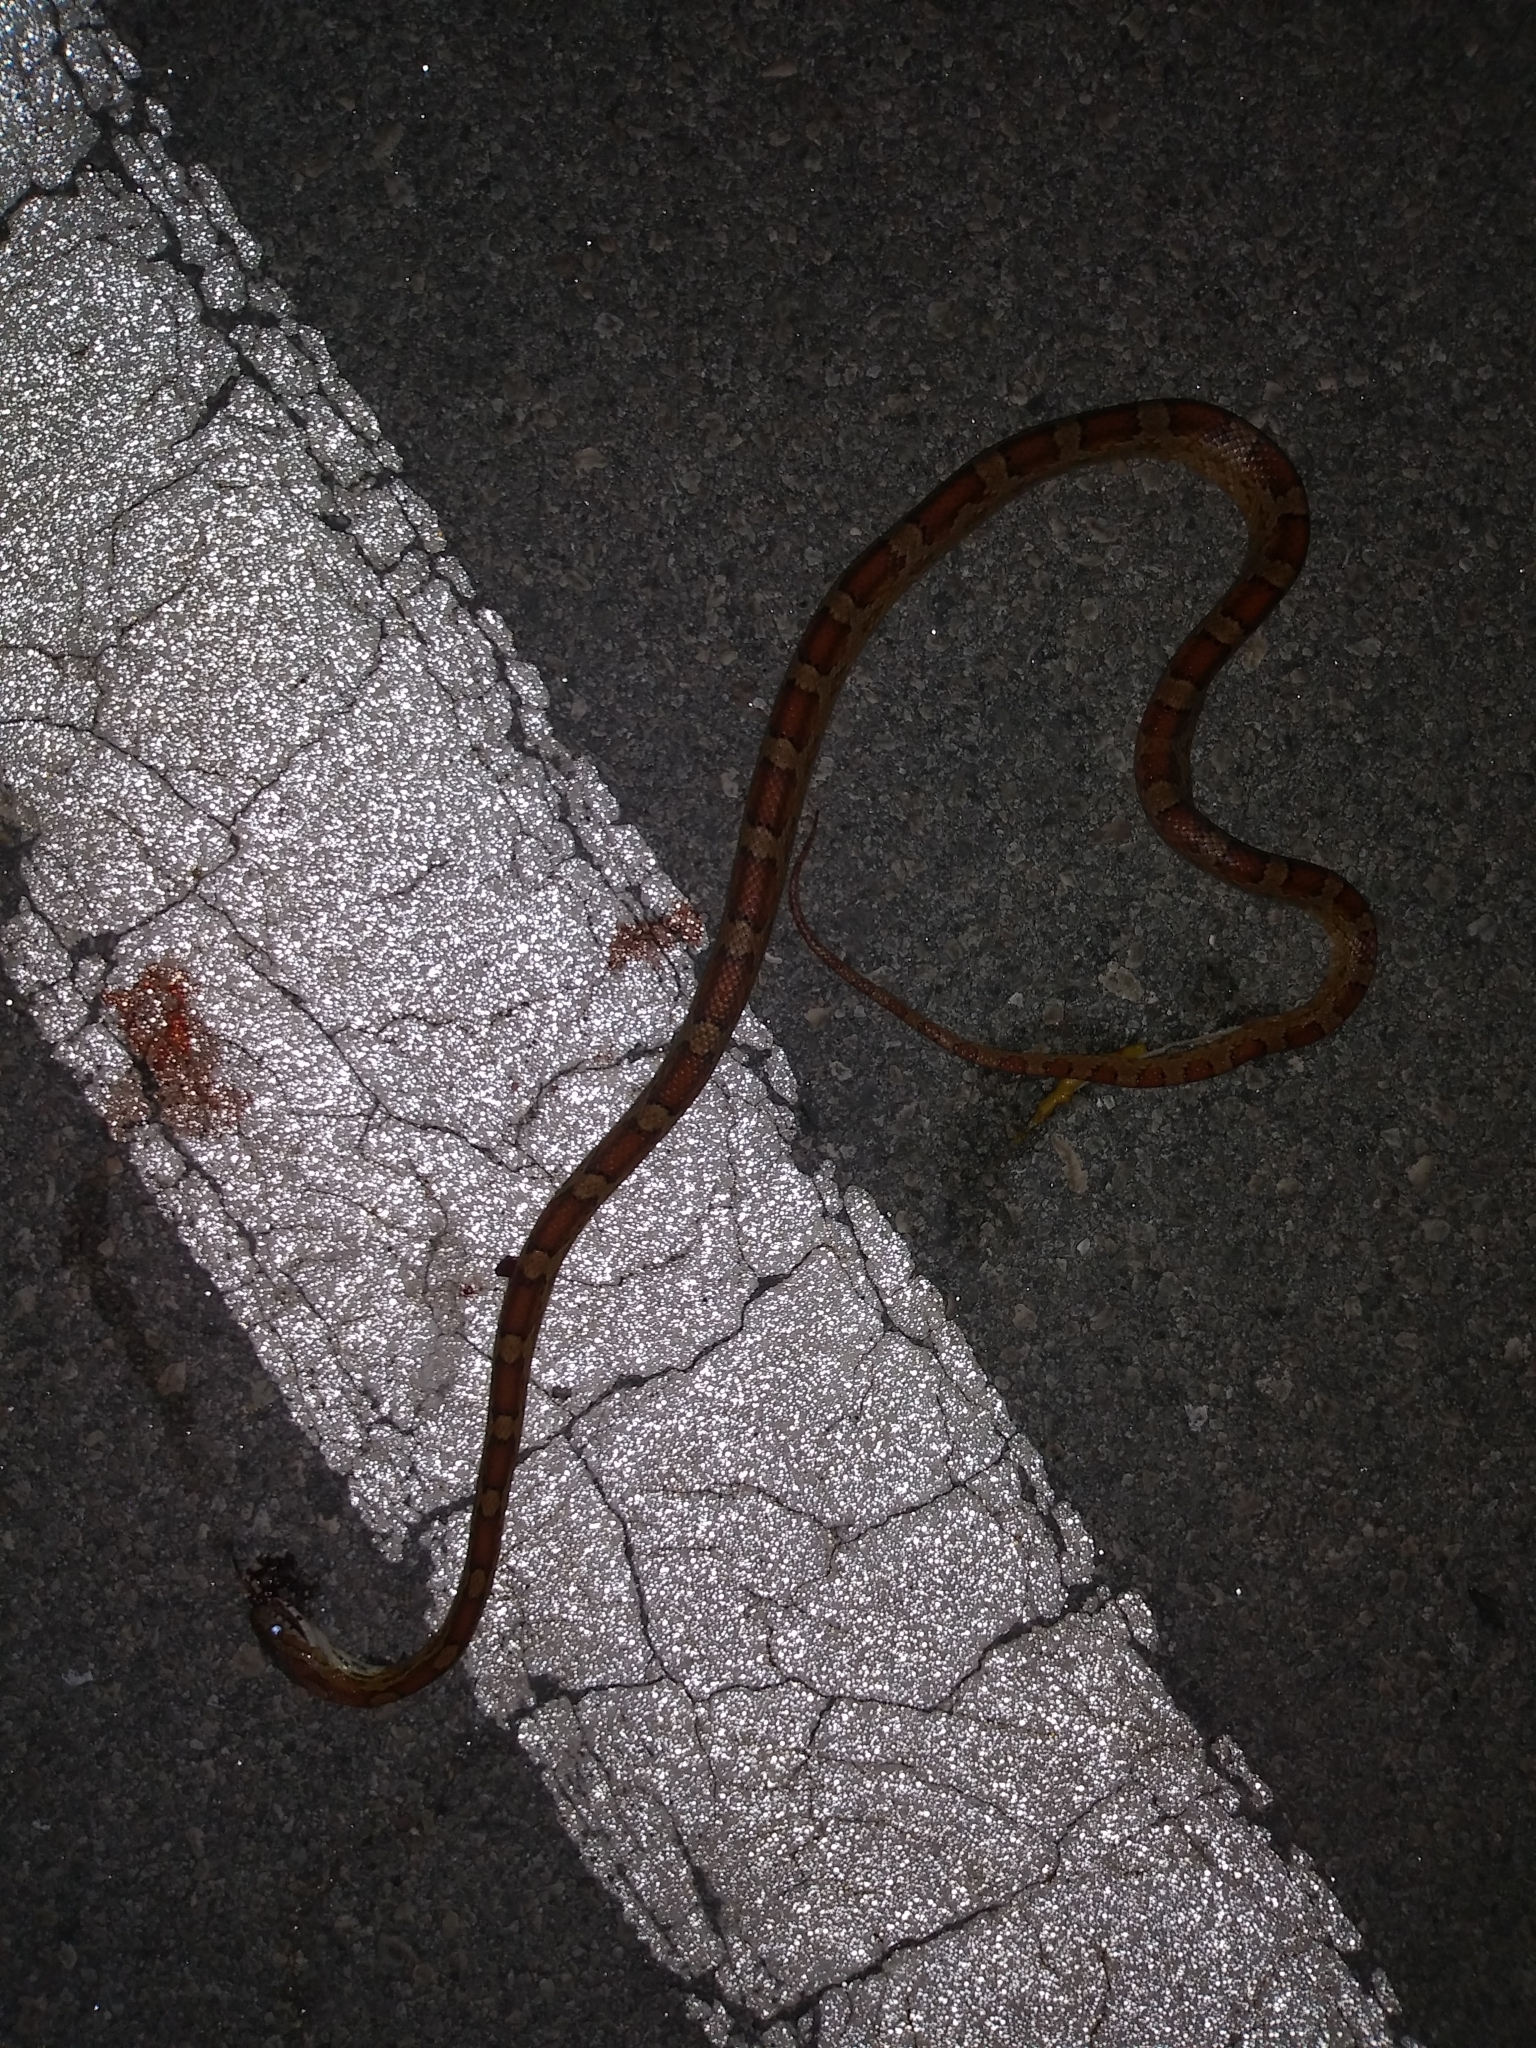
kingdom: Animalia
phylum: Chordata
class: Squamata
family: Colubridae
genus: Pantherophis
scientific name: Pantherophis guttatus
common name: Red cornsnake
